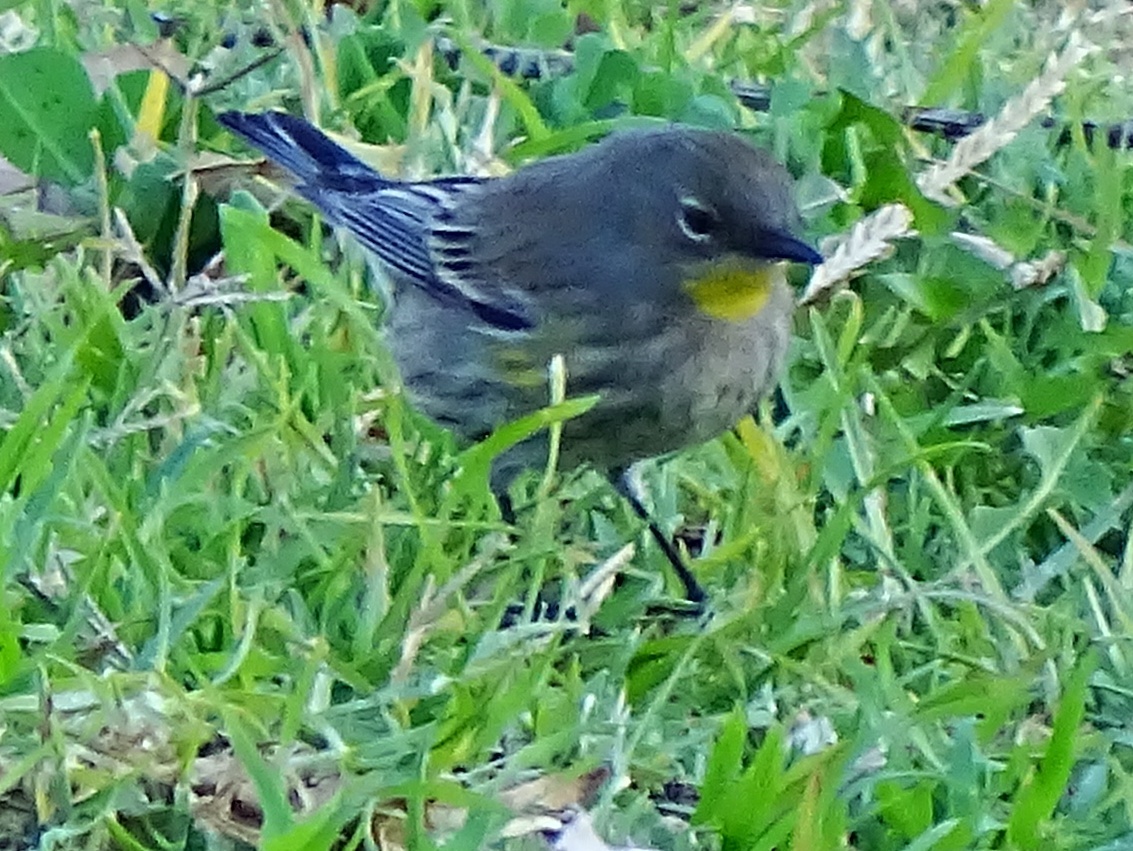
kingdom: Animalia
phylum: Chordata
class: Aves
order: Passeriformes
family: Parulidae
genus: Setophaga
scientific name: Setophaga coronata
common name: Myrtle warbler
